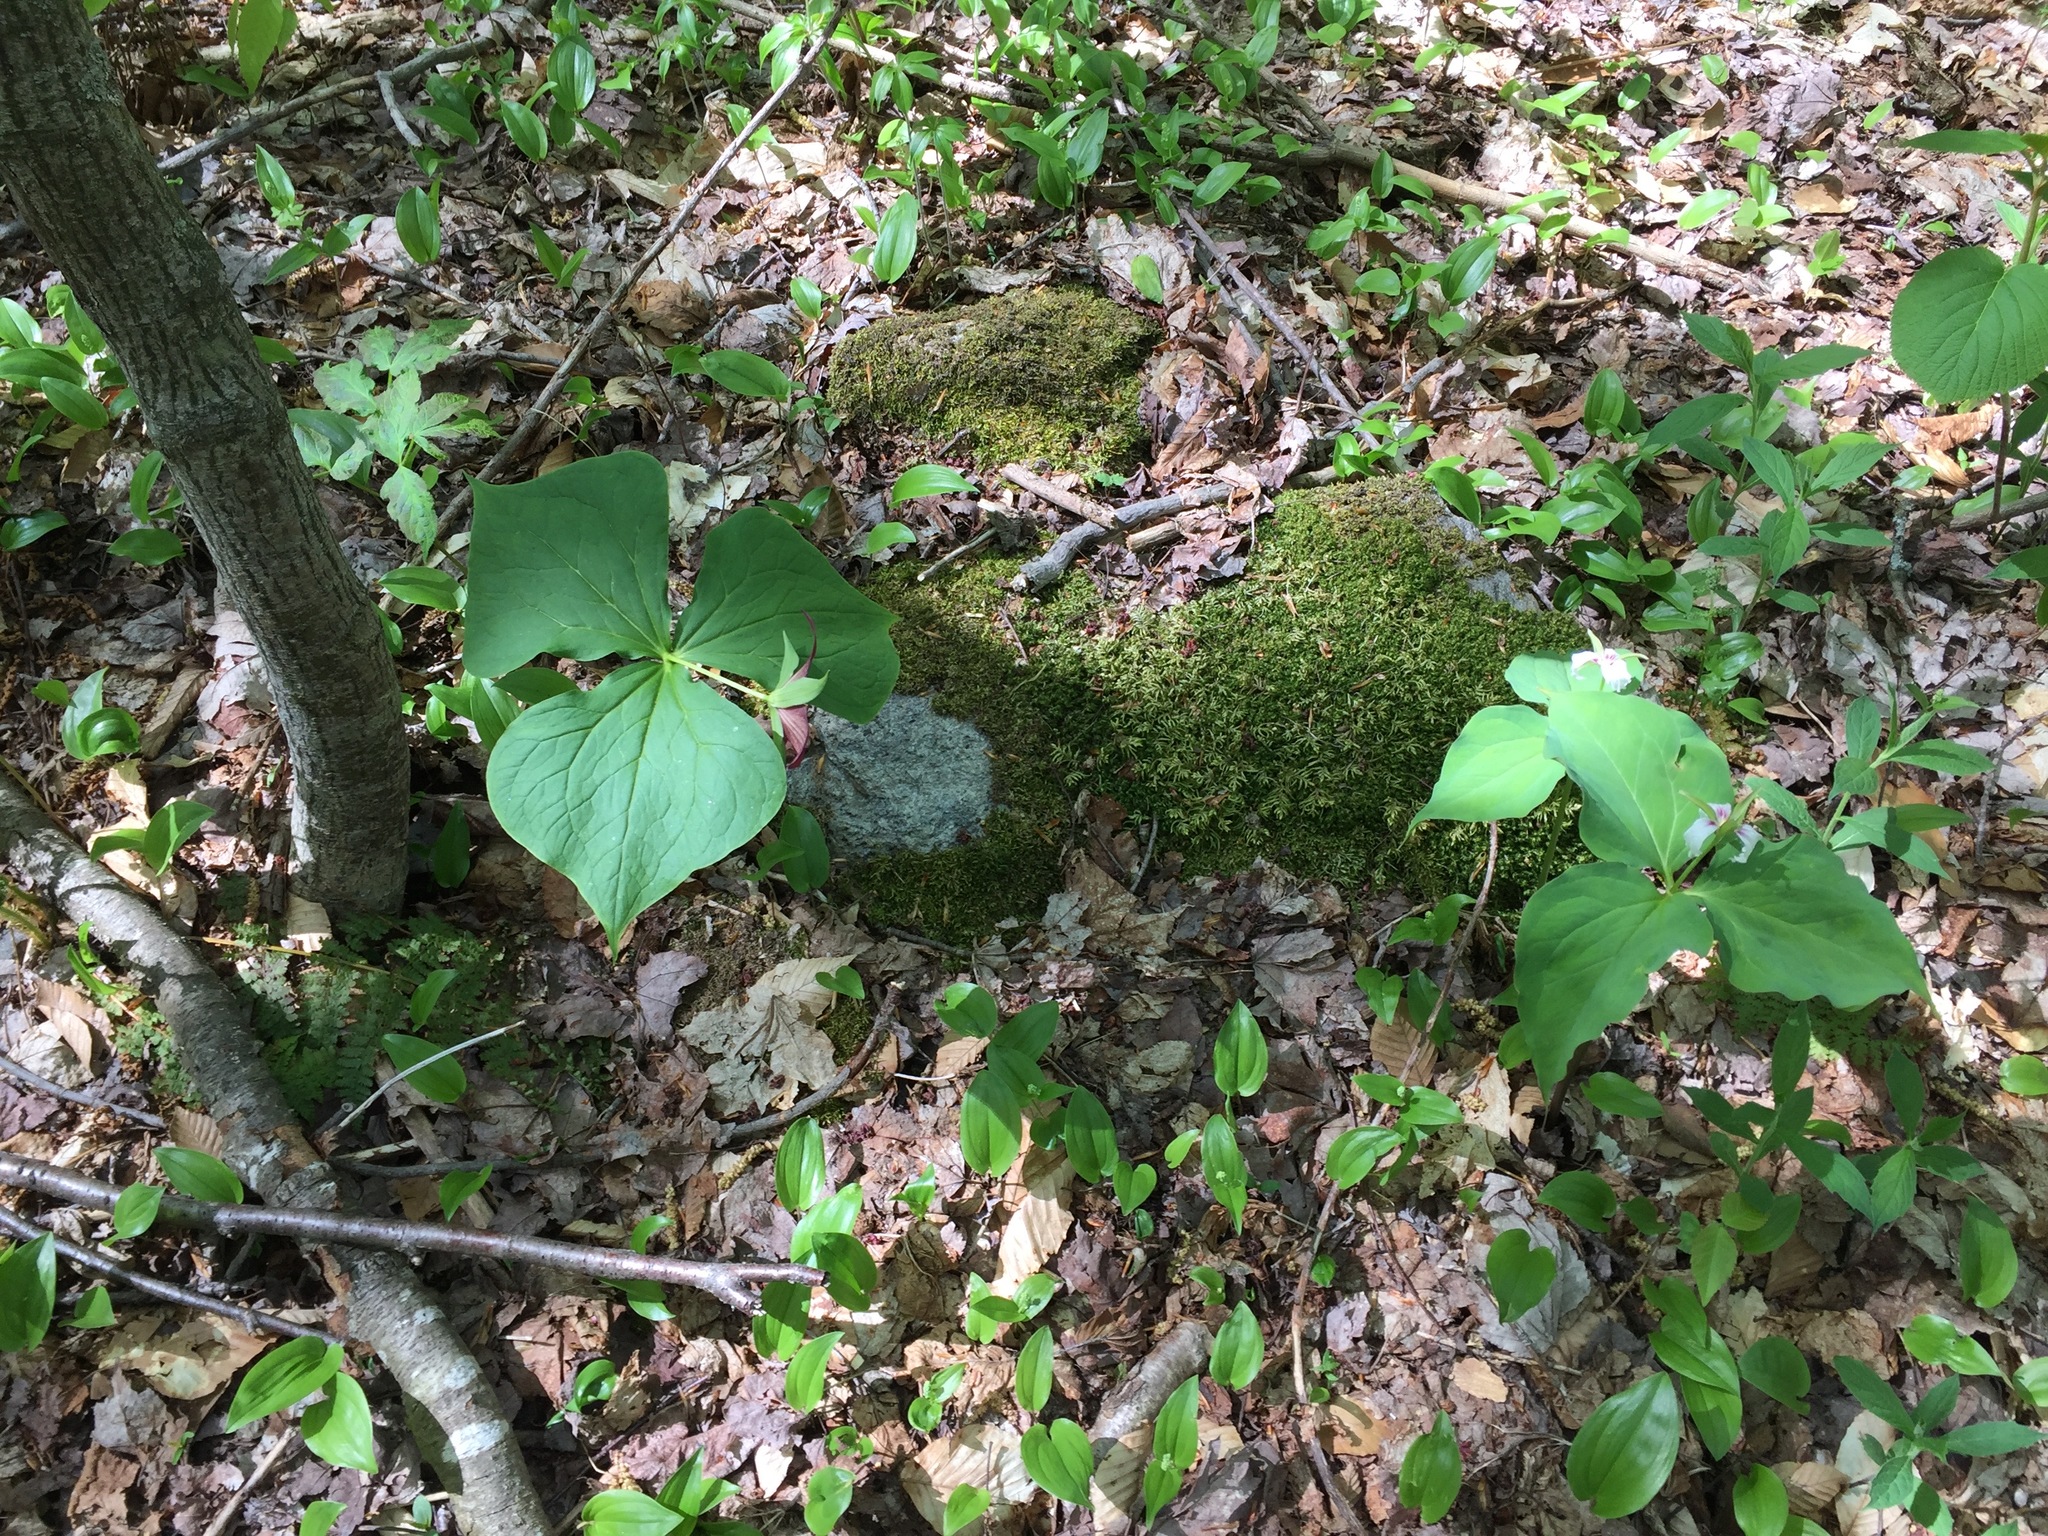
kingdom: Plantae
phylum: Tracheophyta
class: Liliopsida
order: Liliales
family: Melanthiaceae
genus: Trillium
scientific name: Trillium undulatum
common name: Paint trillium
